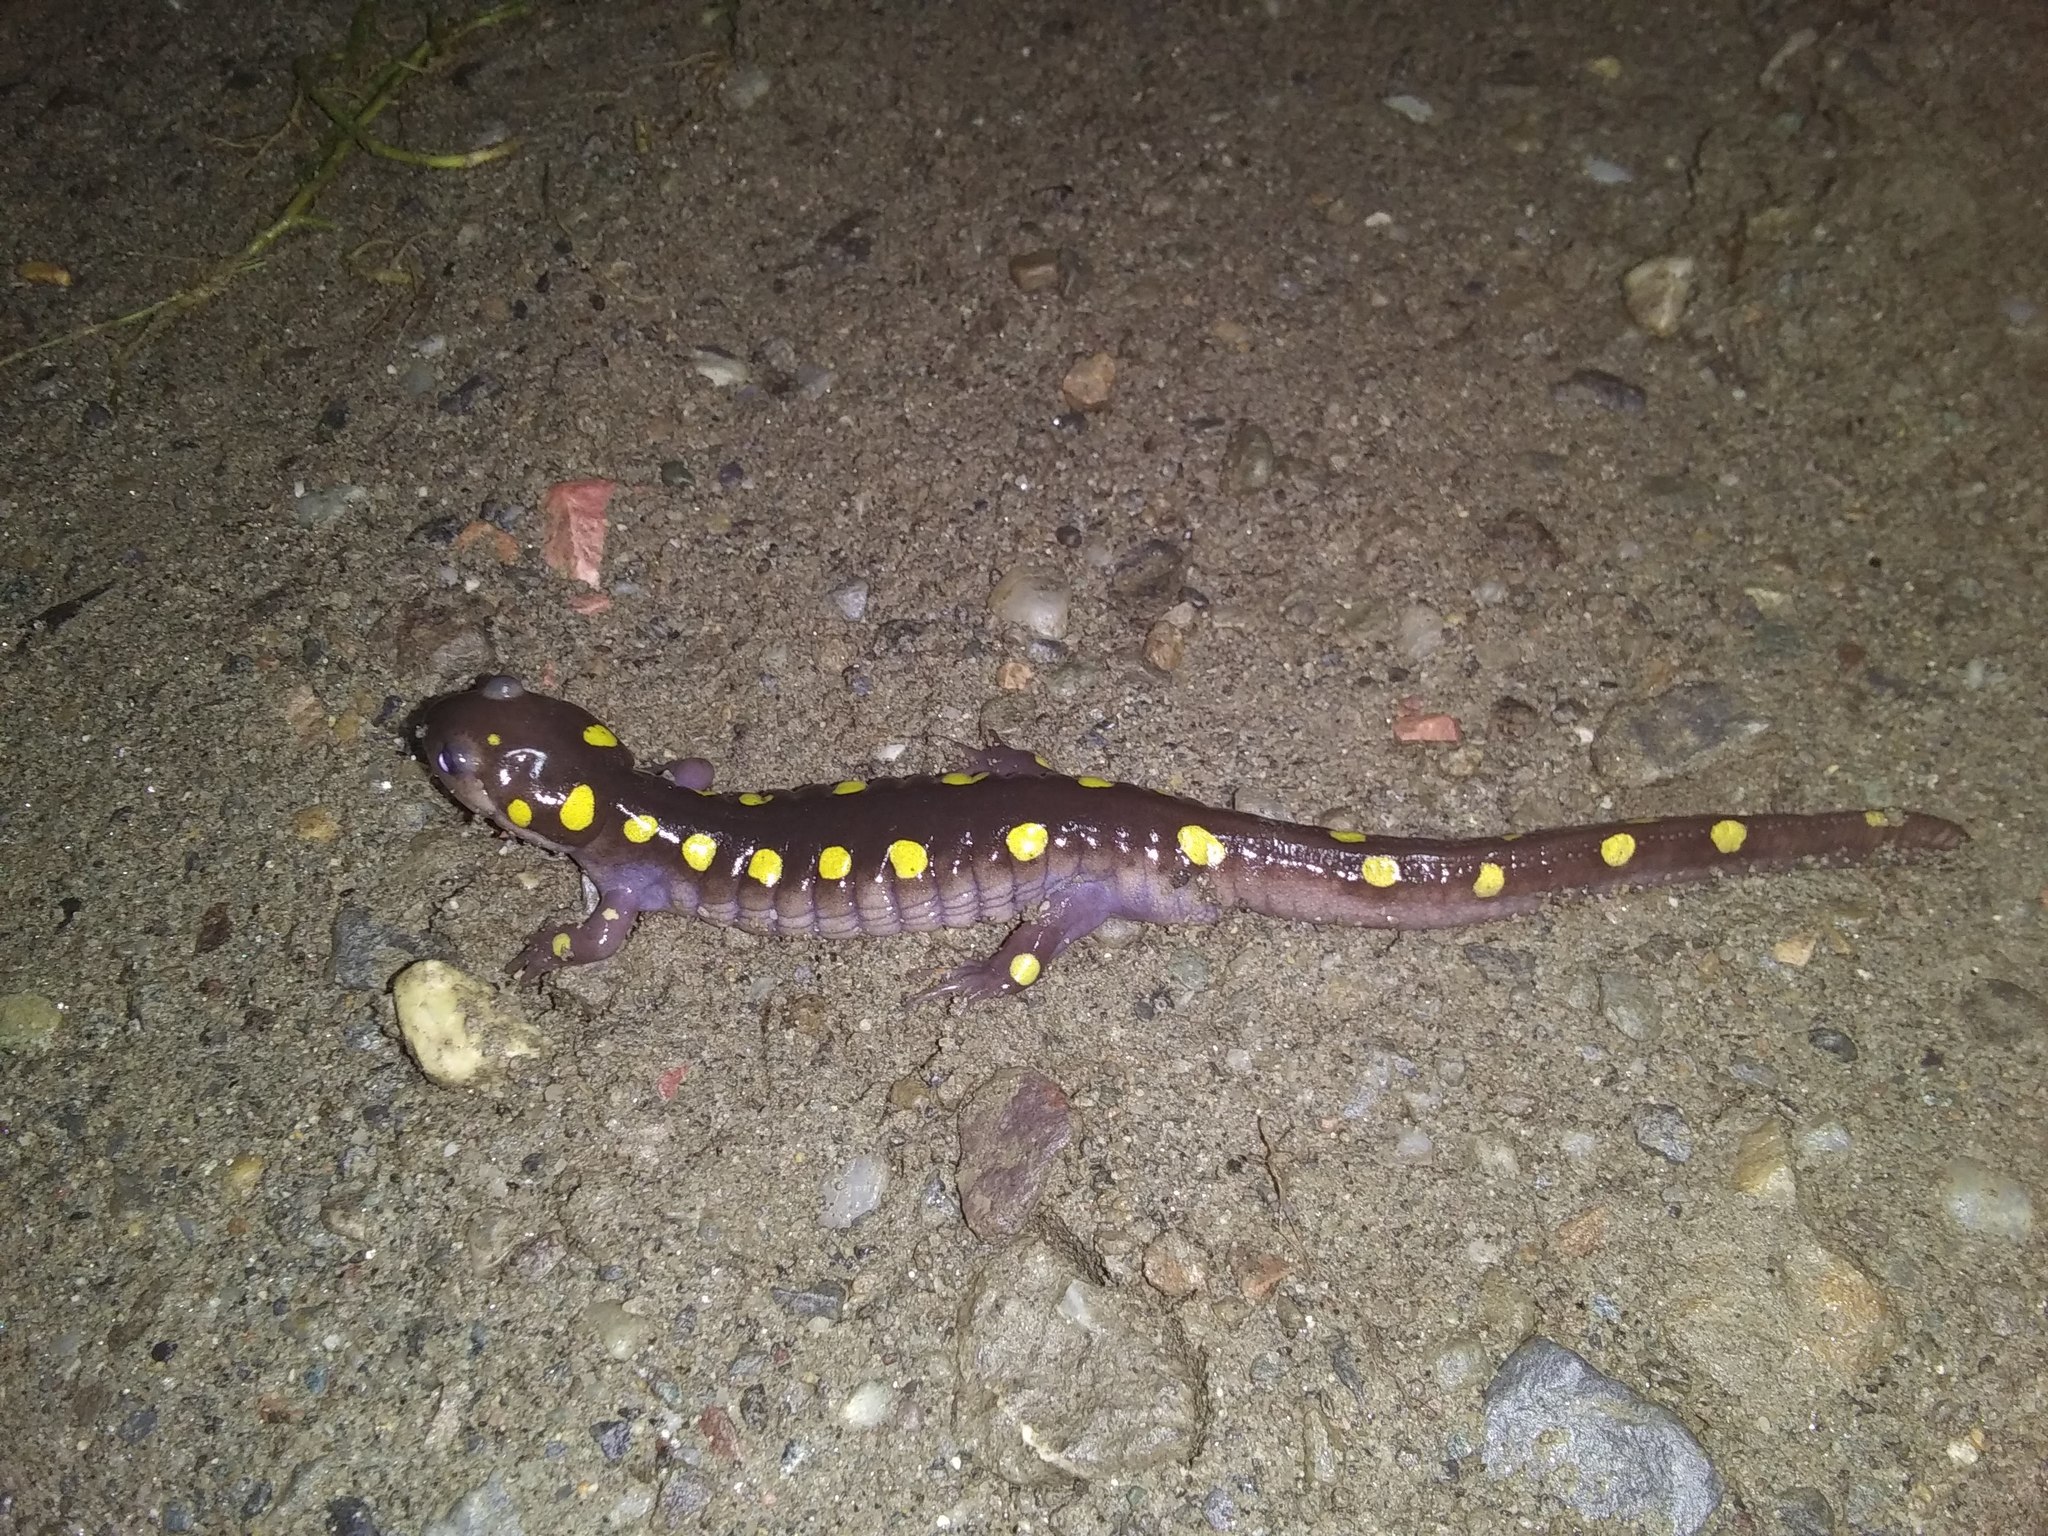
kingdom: Animalia
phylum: Chordata
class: Amphibia
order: Caudata
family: Ambystomatidae
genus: Ambystoma
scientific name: Ambystoma maculatum
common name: Spotted salamander
